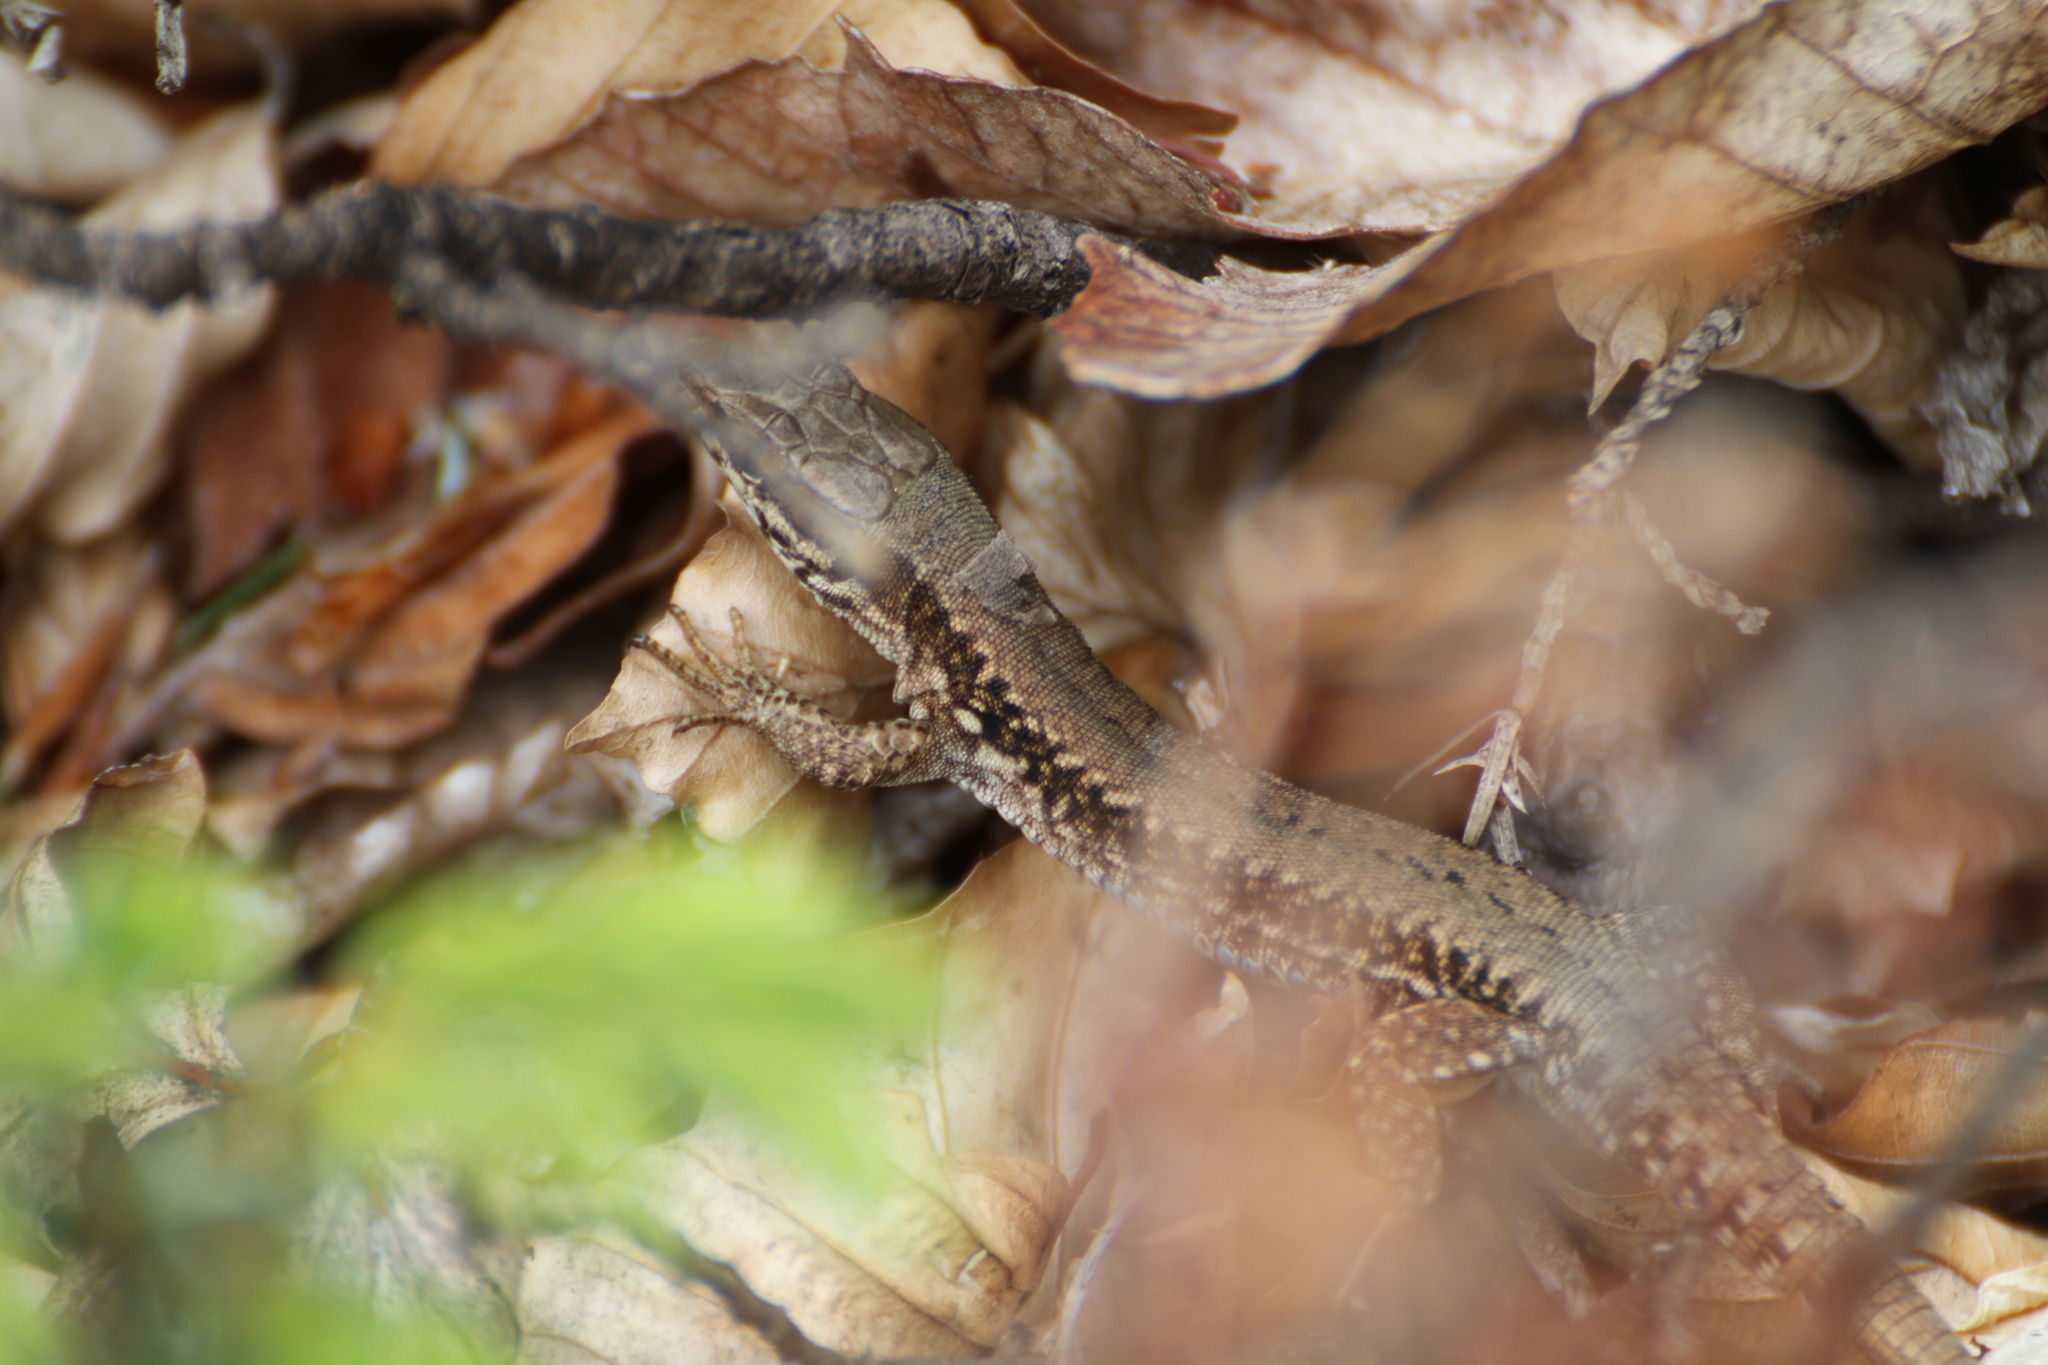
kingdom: Animalia
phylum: Chordata
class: Squamata
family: Lacertidae
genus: Podarcis
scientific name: Podarcis muralis
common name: Common wall lizard
